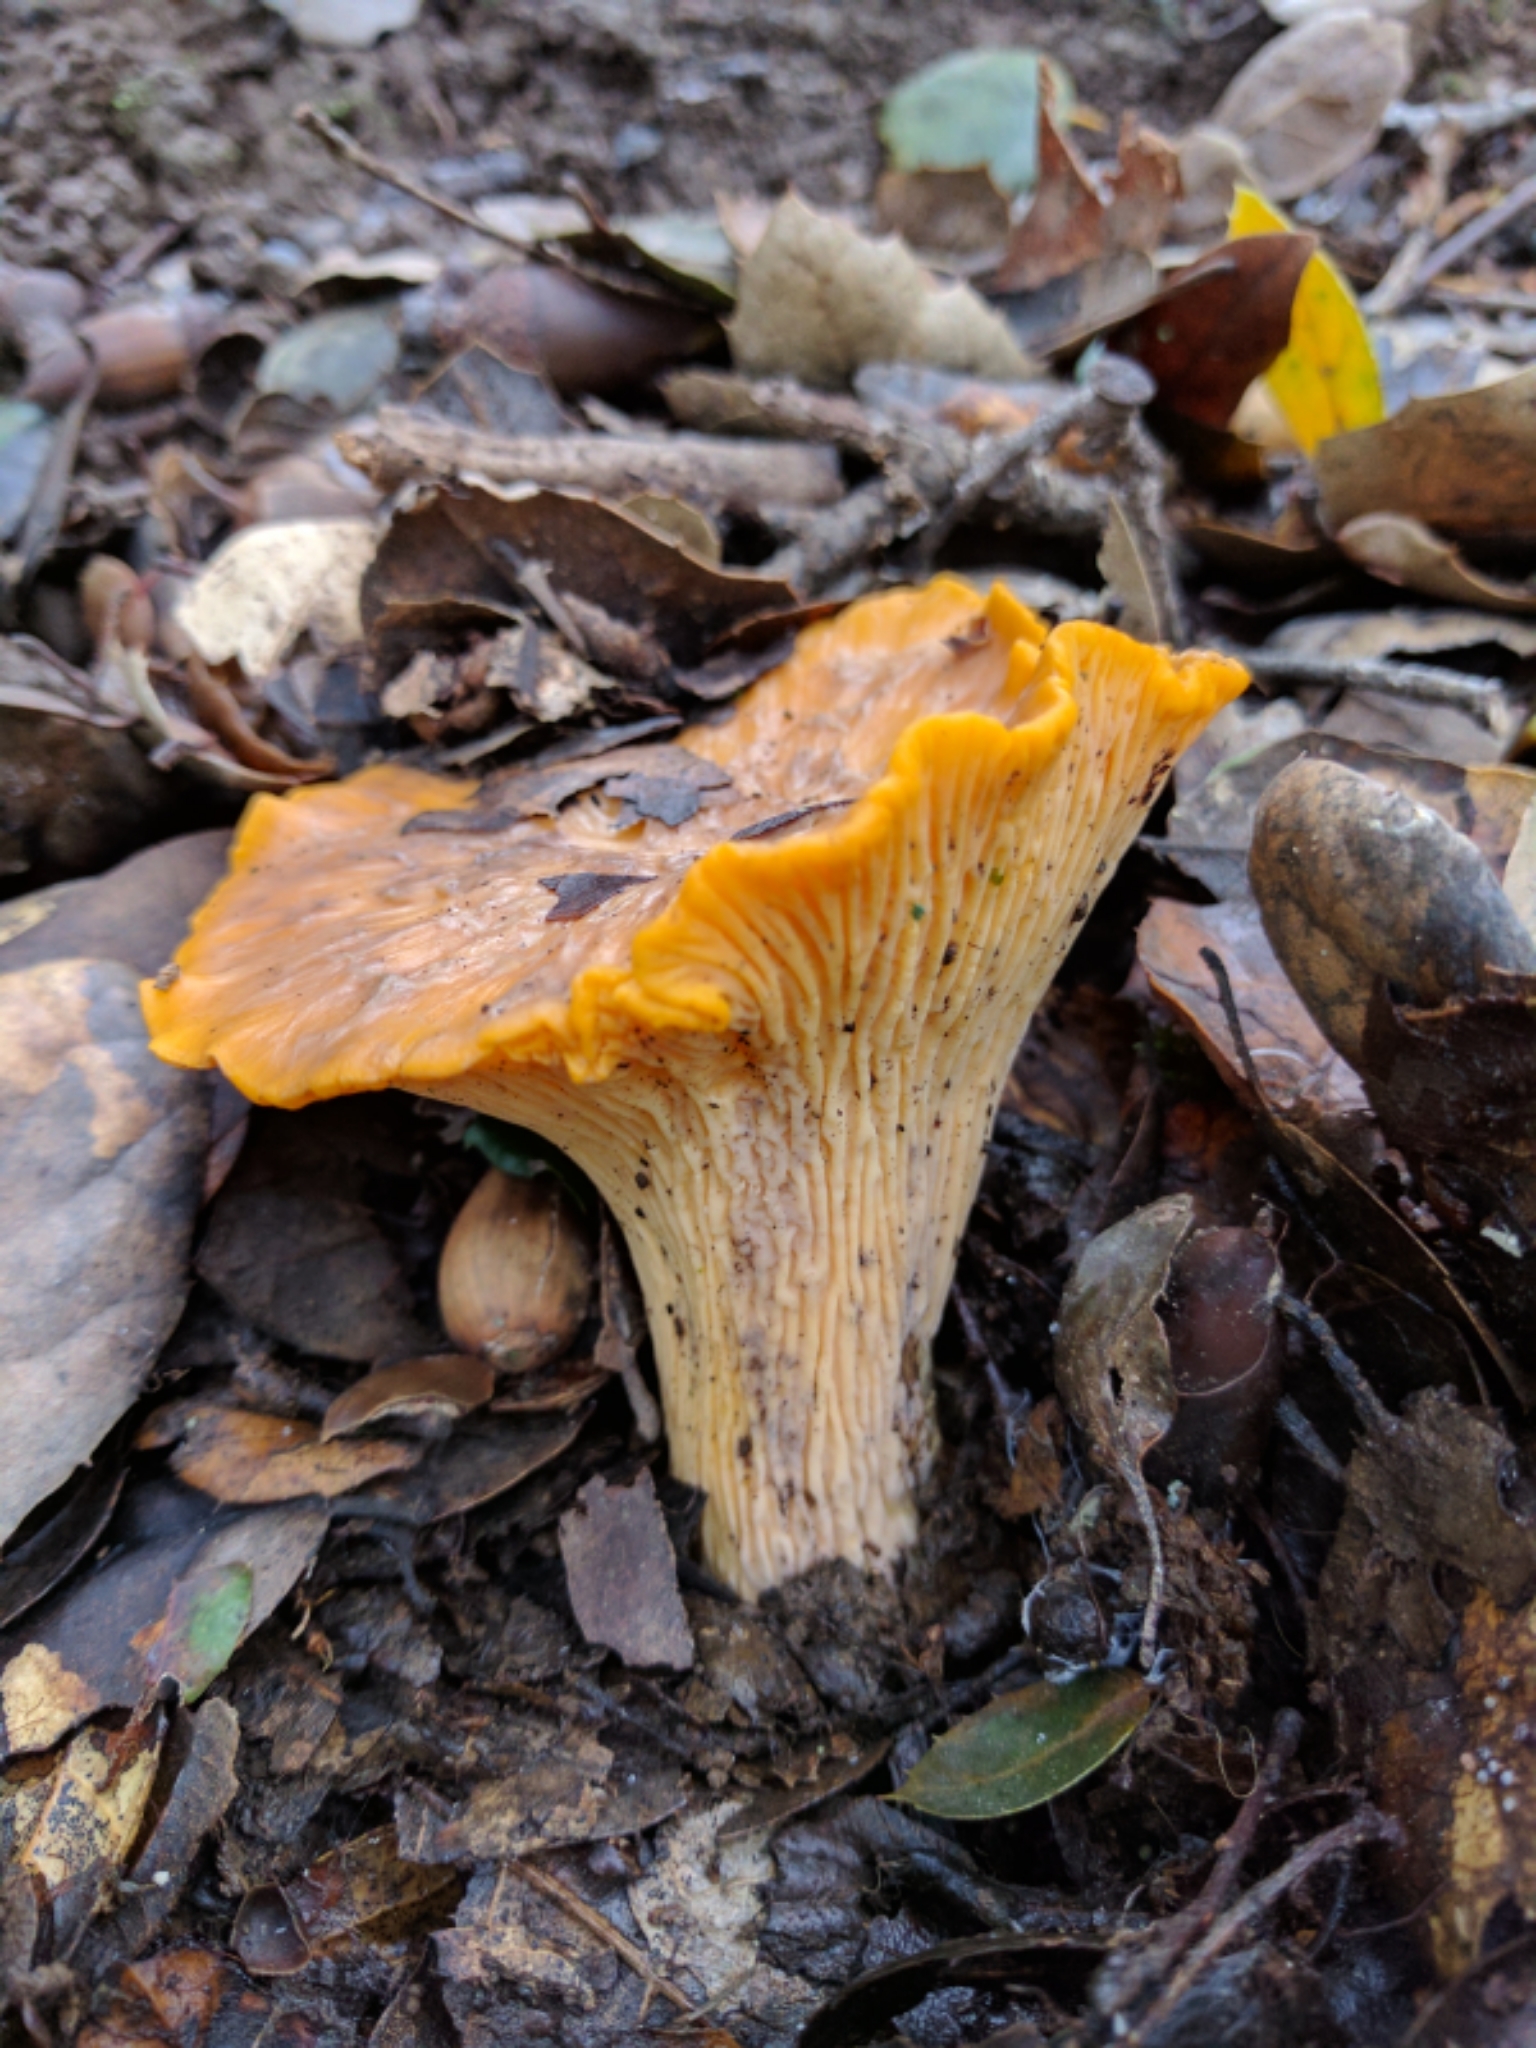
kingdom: Fungi
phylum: Basidiomycota
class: Agaricomycetes
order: Cantharellales
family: Hydnaceae
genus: Cantharellus
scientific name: Cantharellus californicus
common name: California golden chanterelle
